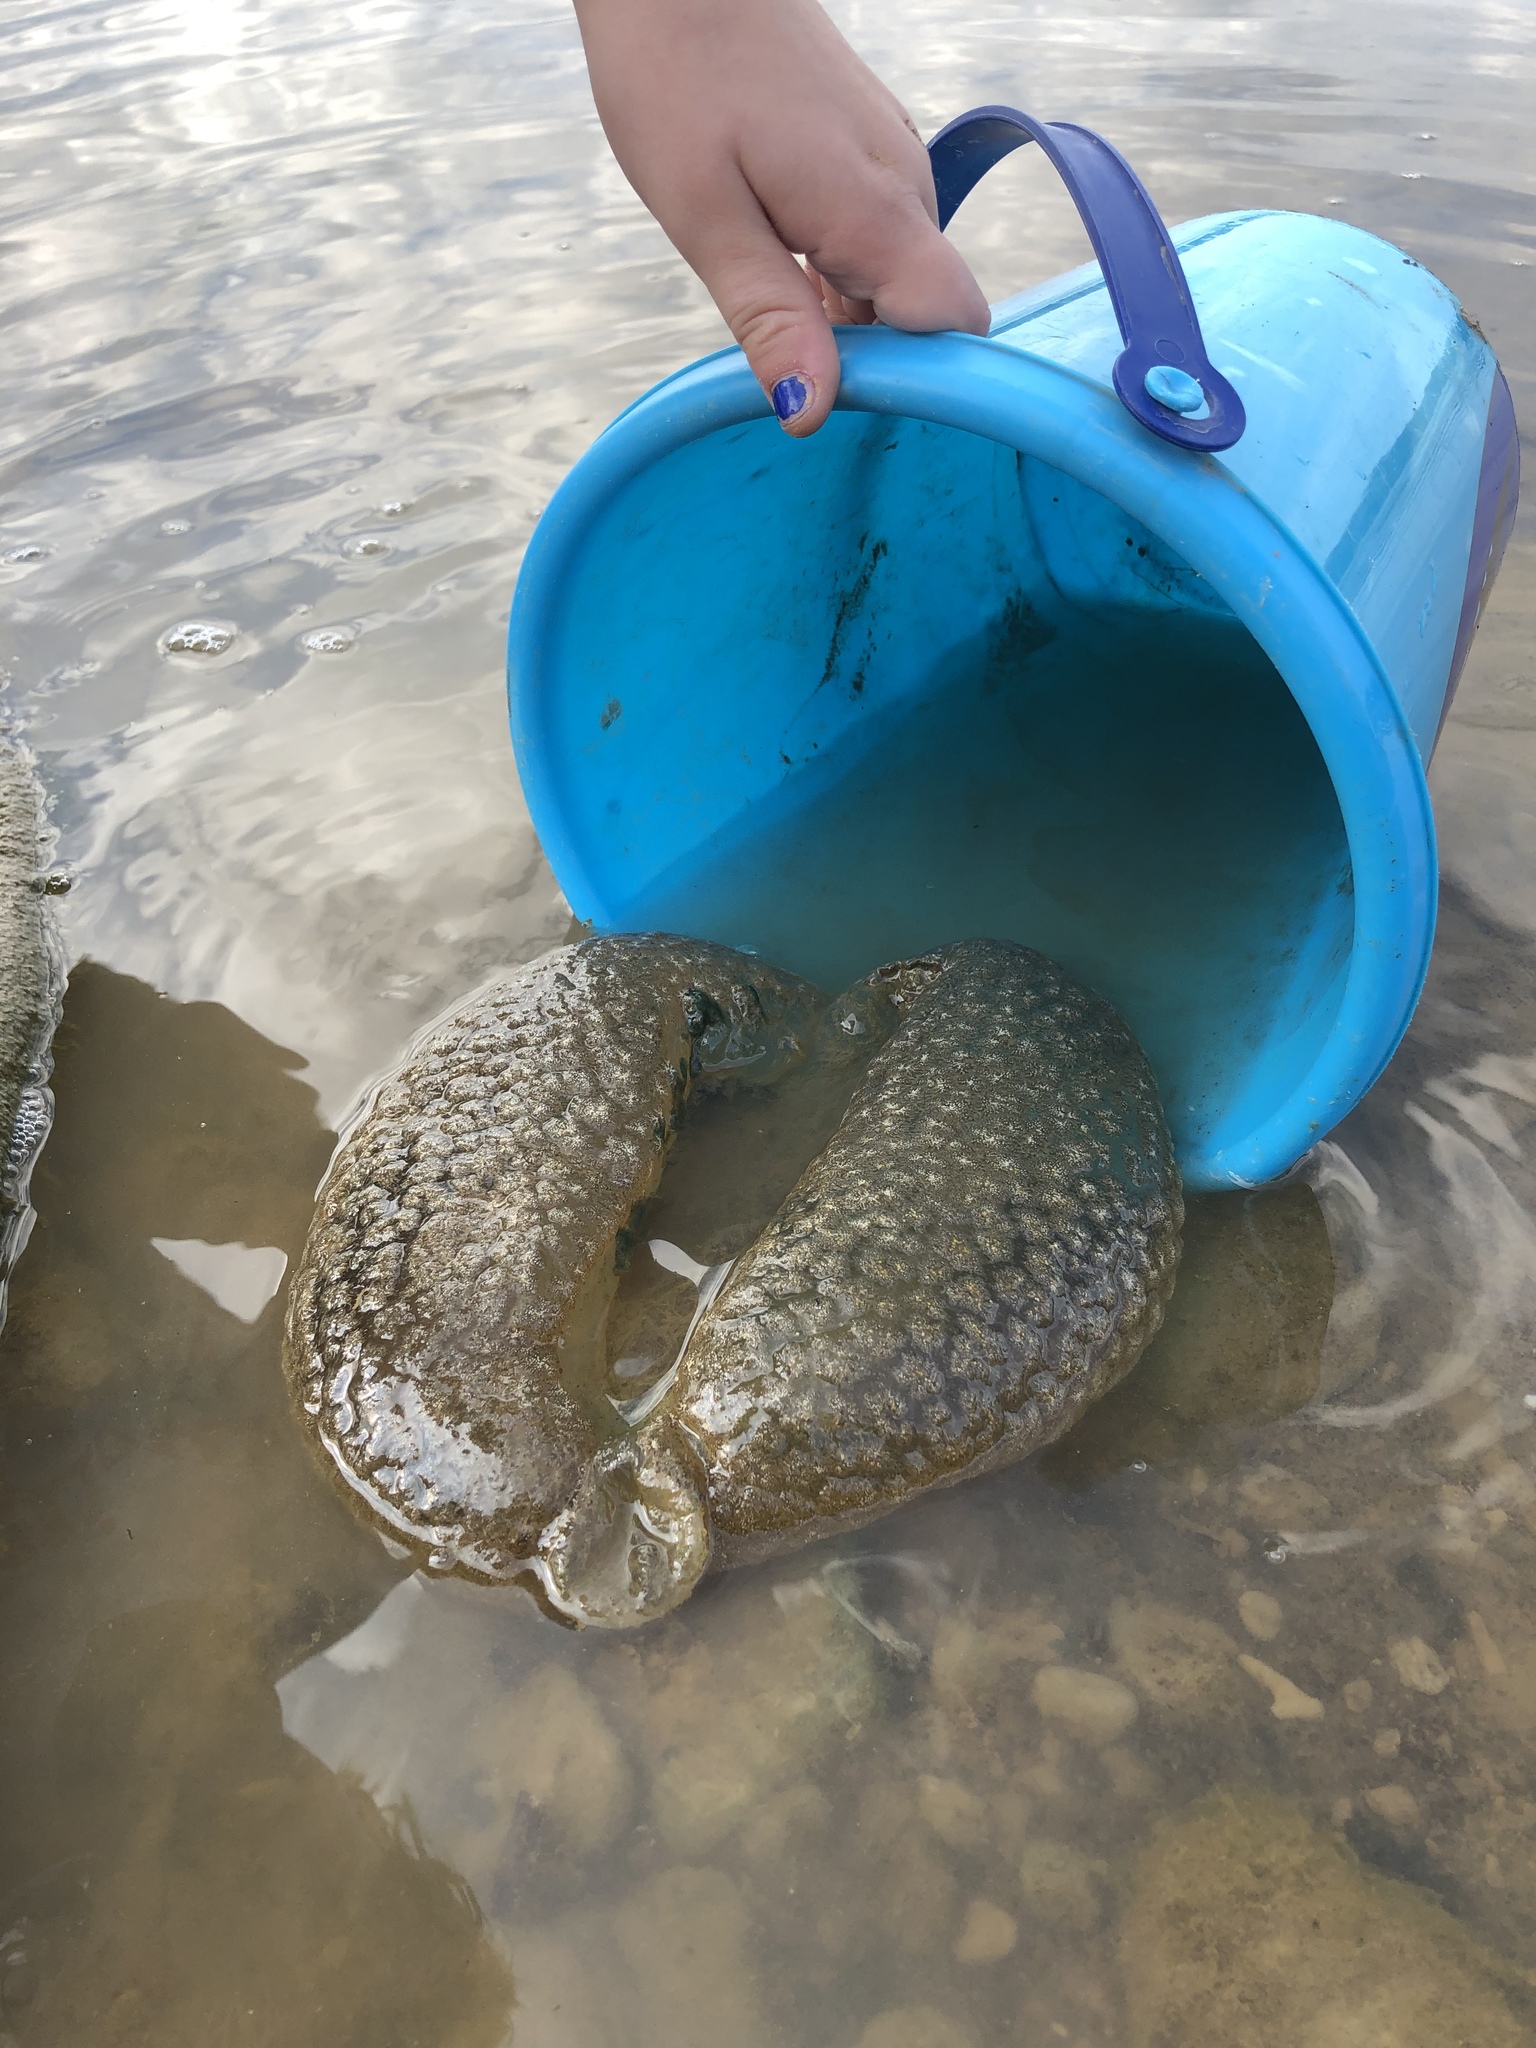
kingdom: Animalia
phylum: Bryozoa
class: Phylactolaemata
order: Plumatellida
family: Pectinatellidae
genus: Pectinatella
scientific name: Pectinatella magnifica
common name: Magnificent bryozoan
